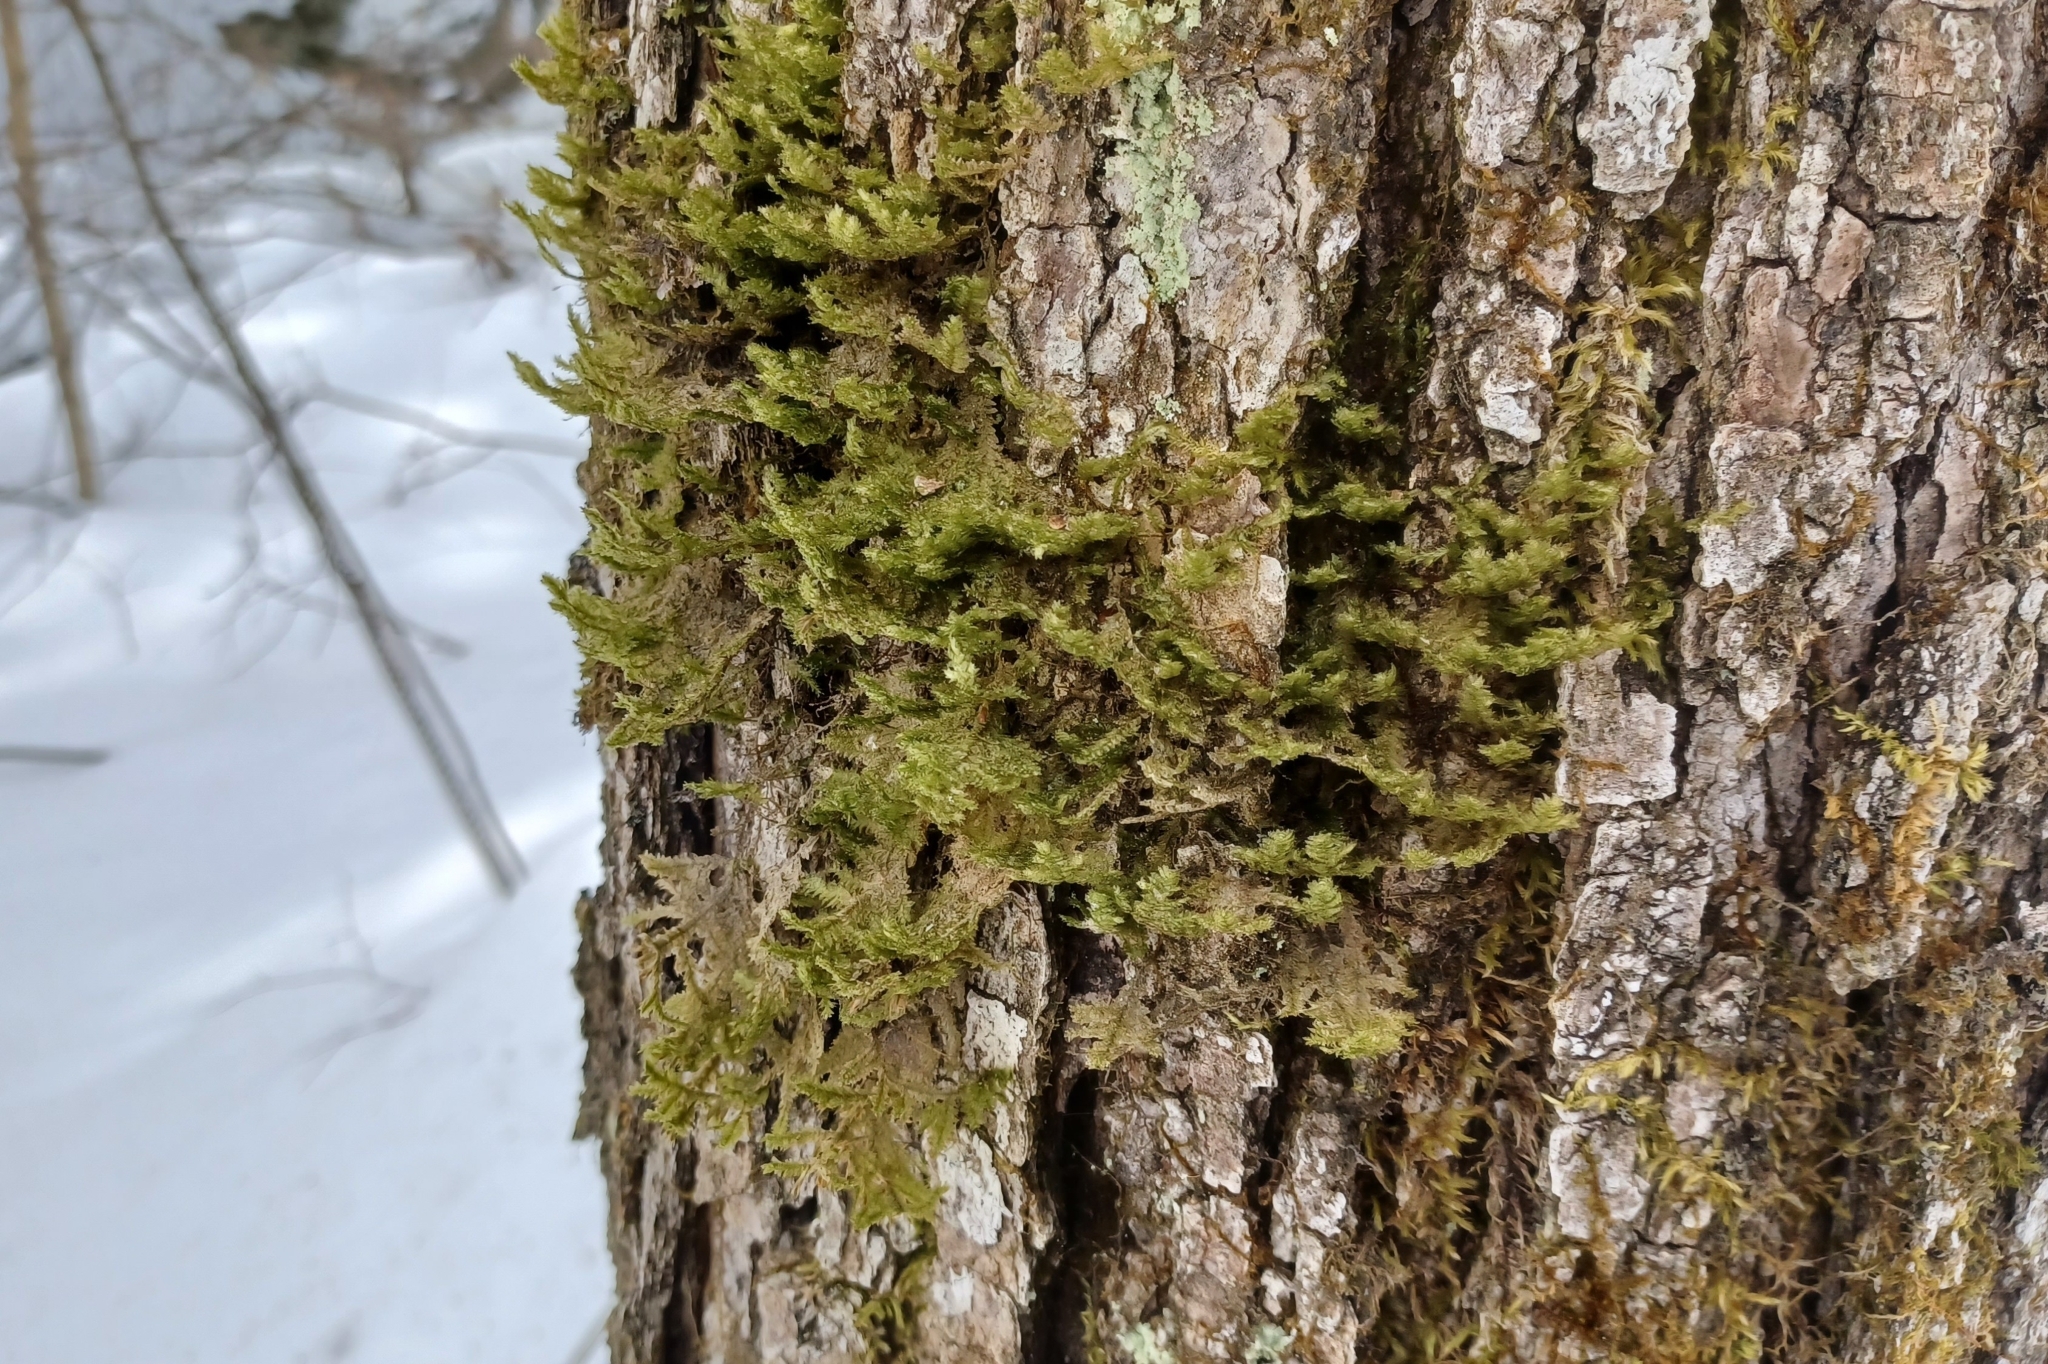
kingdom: Plantae
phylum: Bryophyta
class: Bryopsida
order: Hypnales
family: Neckeraceae
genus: Neckera
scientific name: Neckera pennata
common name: Feathery neckera
